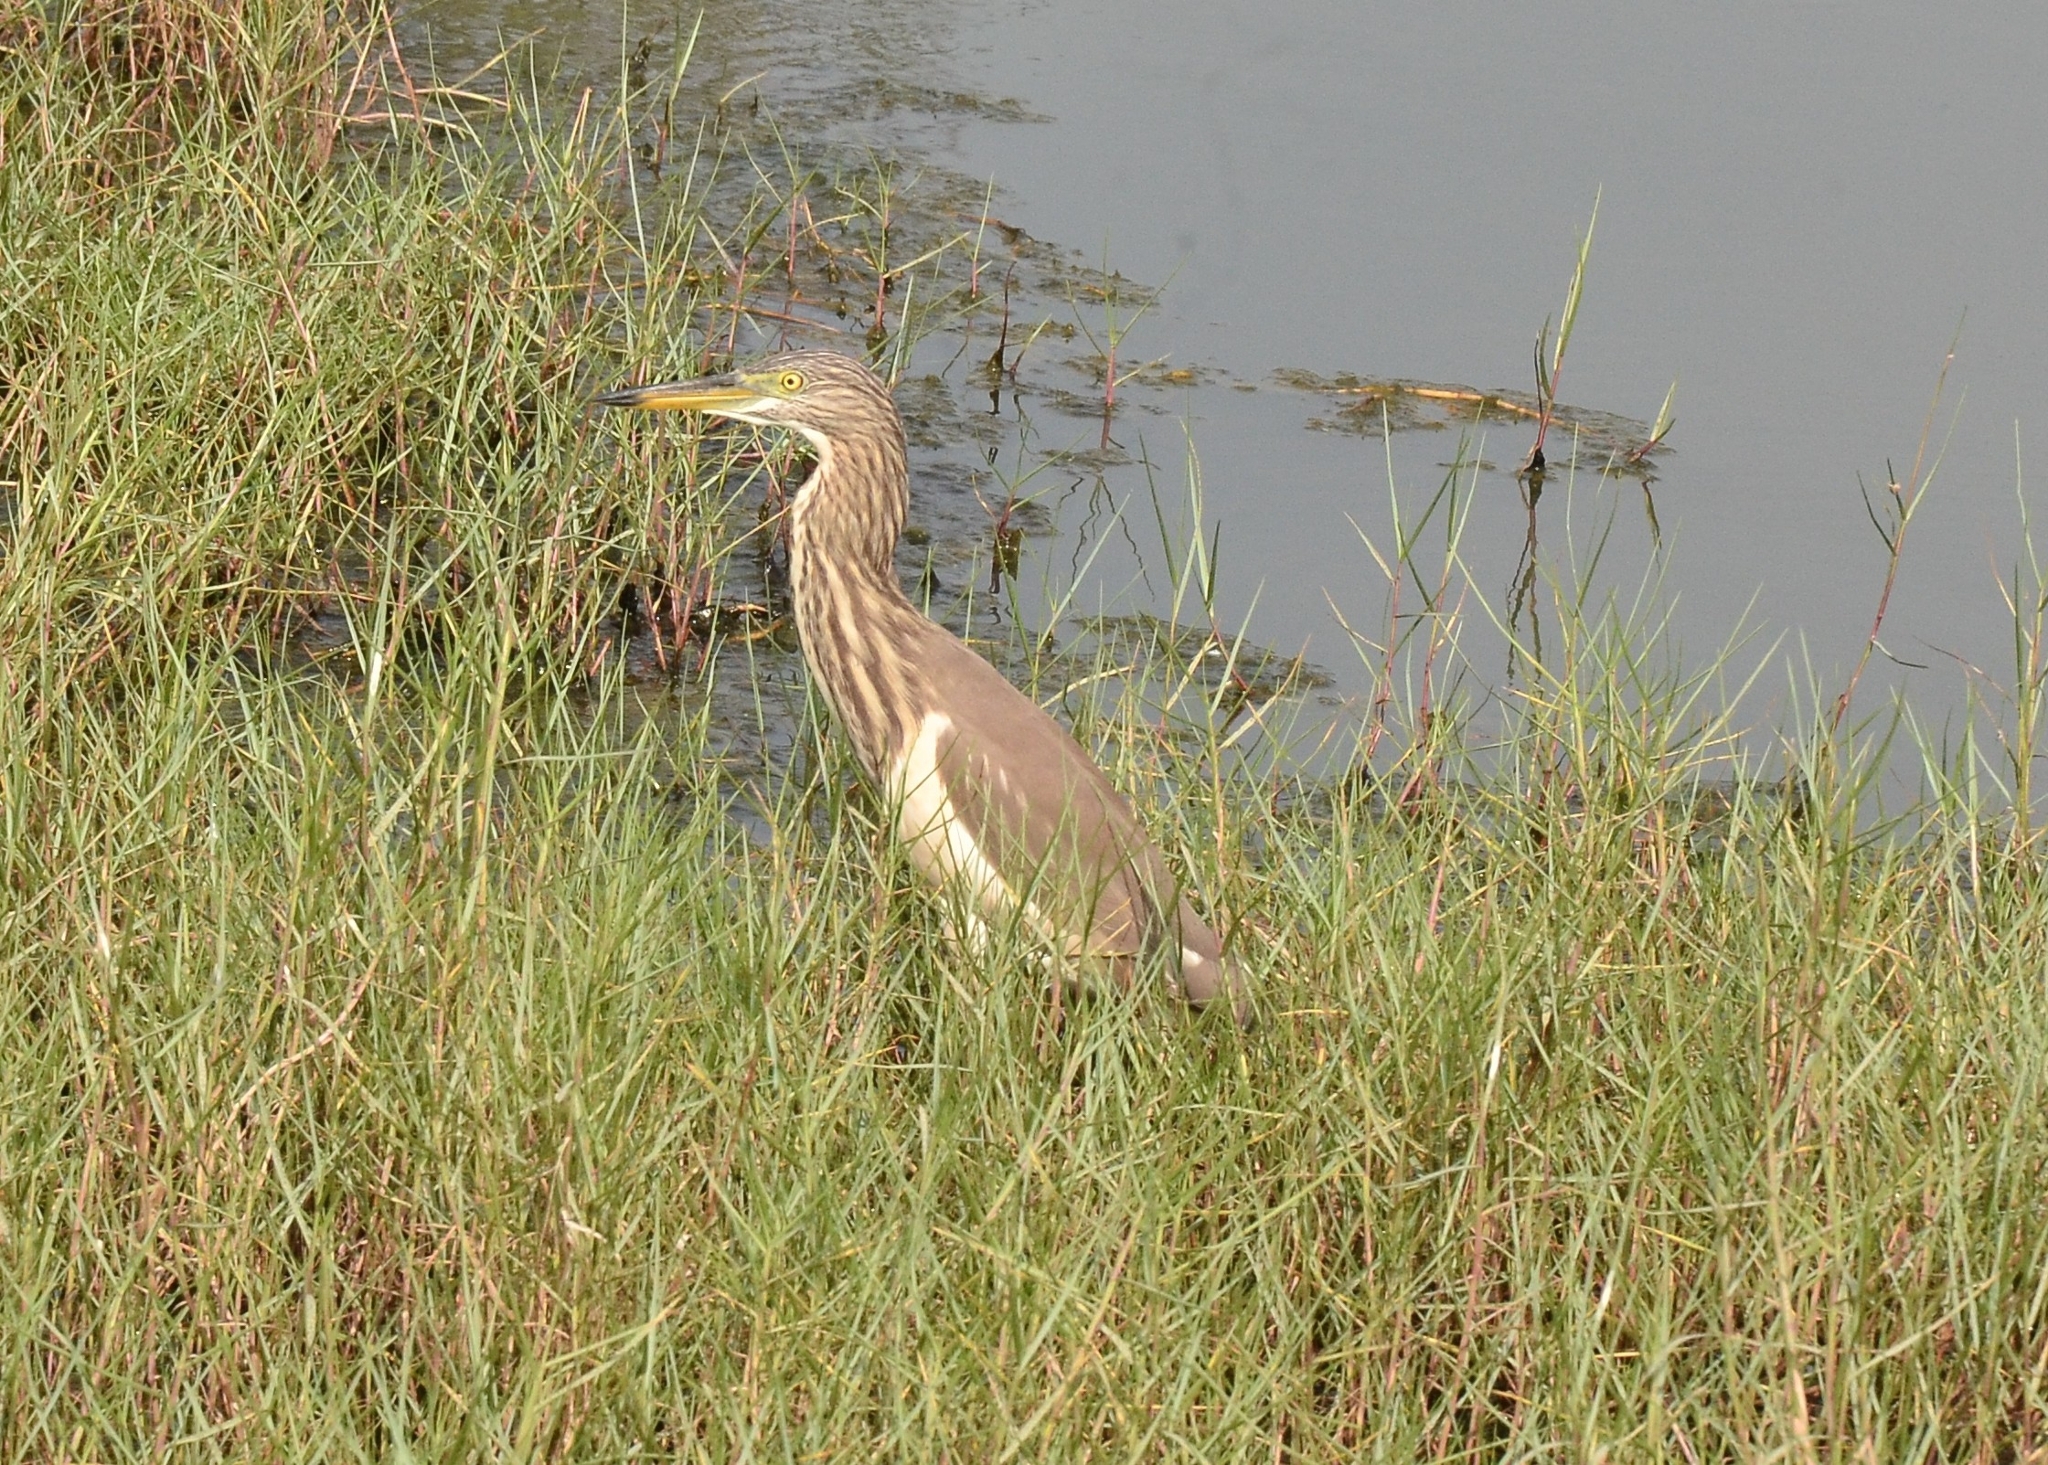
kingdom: Animalia
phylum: Chordata
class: Aves
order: Pelecaniformes
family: Ardeidae
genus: Ardeola
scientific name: Ardeola grayii
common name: Indian pond heron
